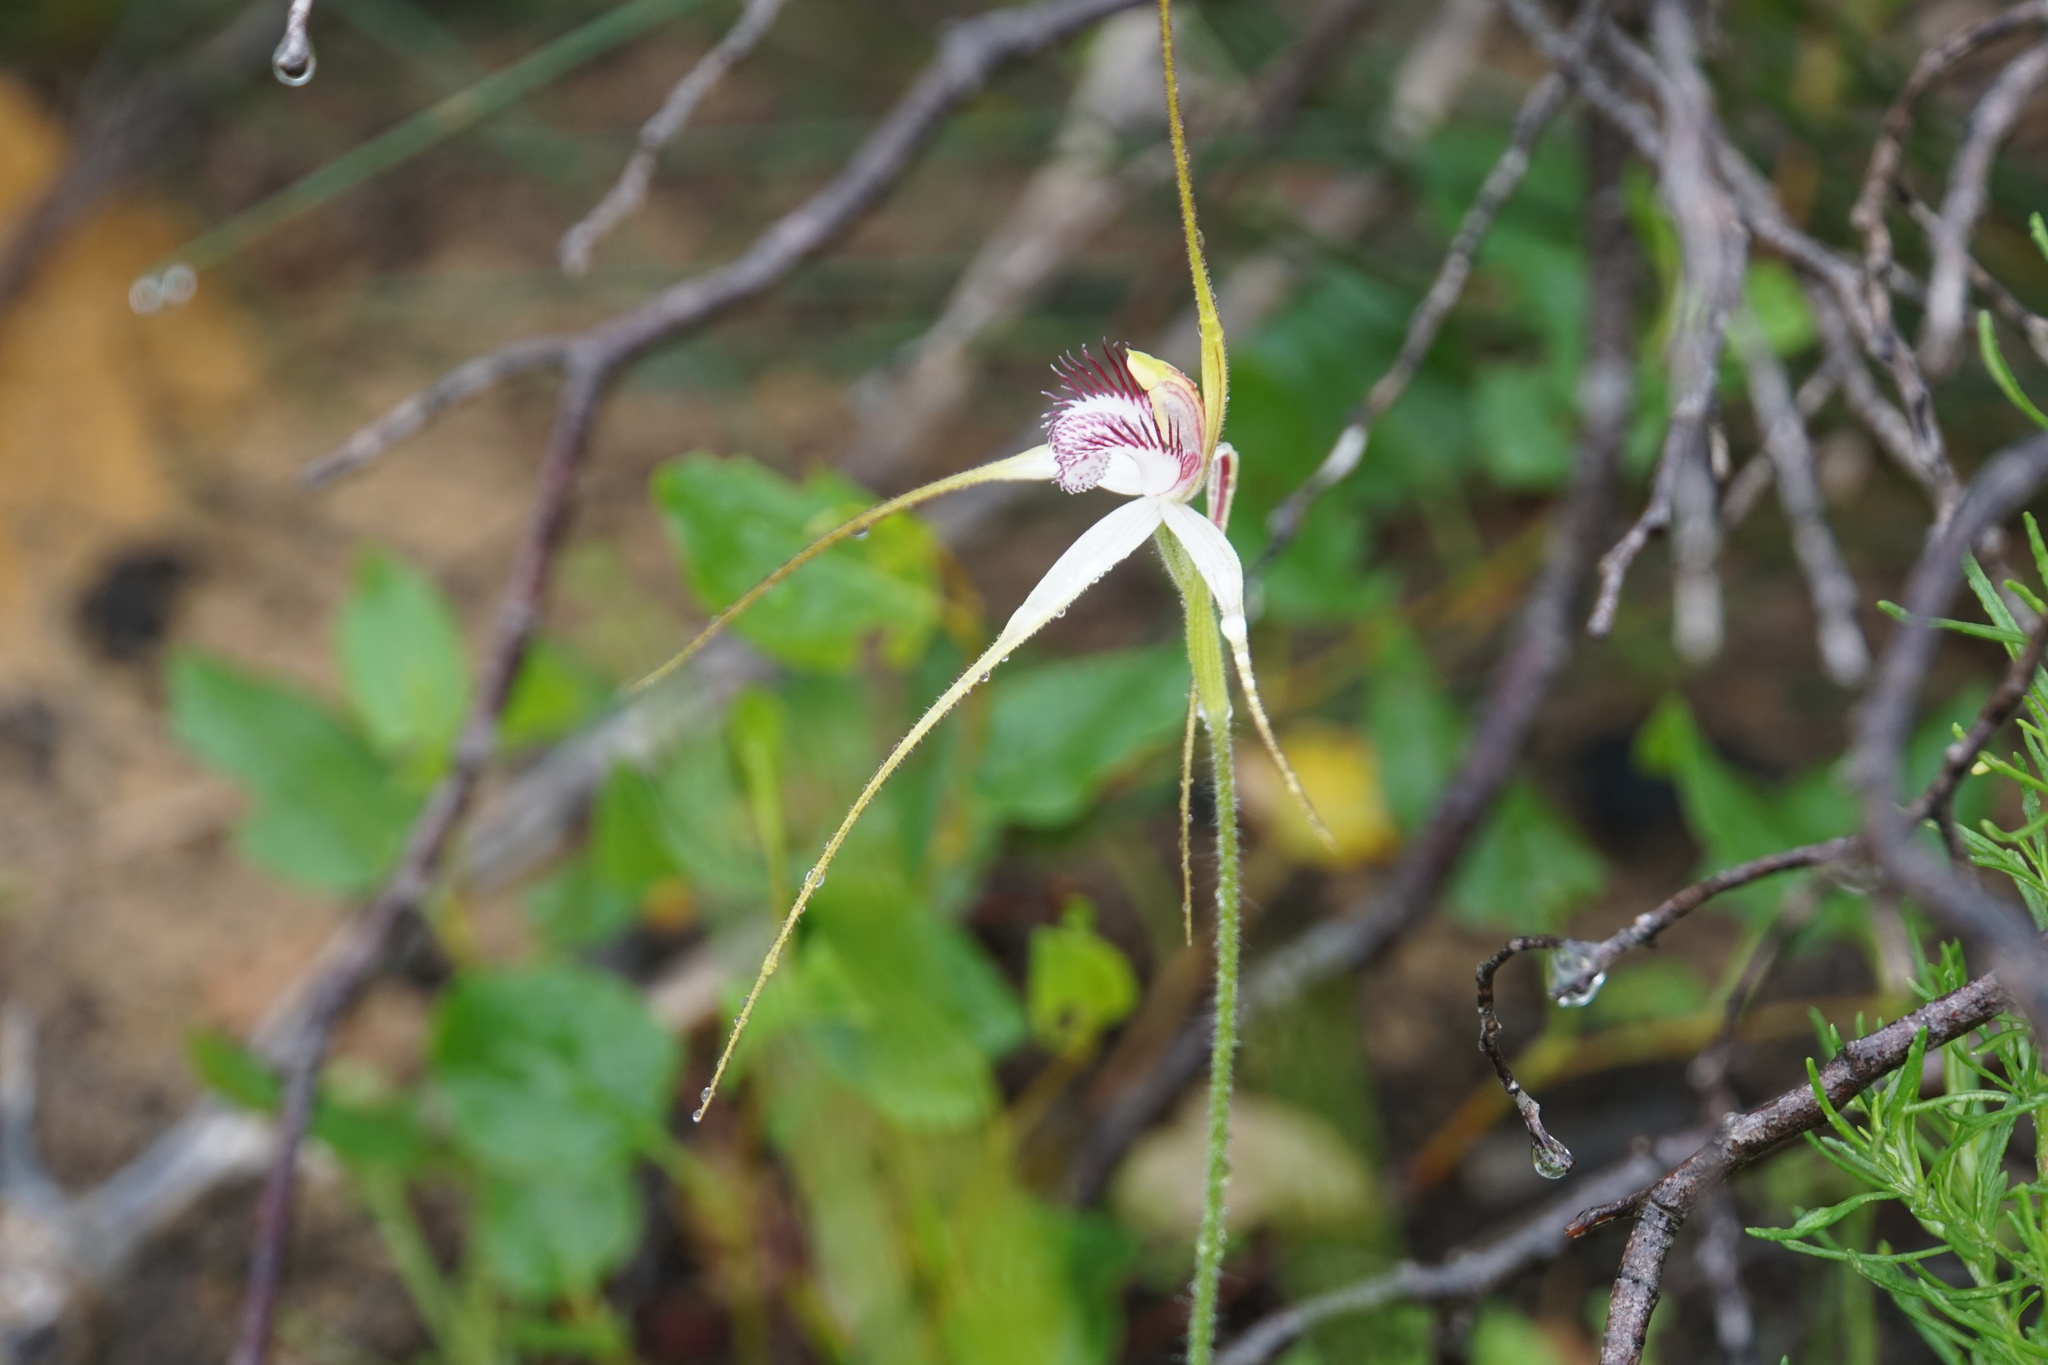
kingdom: Plantae
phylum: Tracheophyta
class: Liliopsida
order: Asparagales
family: Orchidaceae
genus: Caladenia
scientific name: Caladenia longicauda
